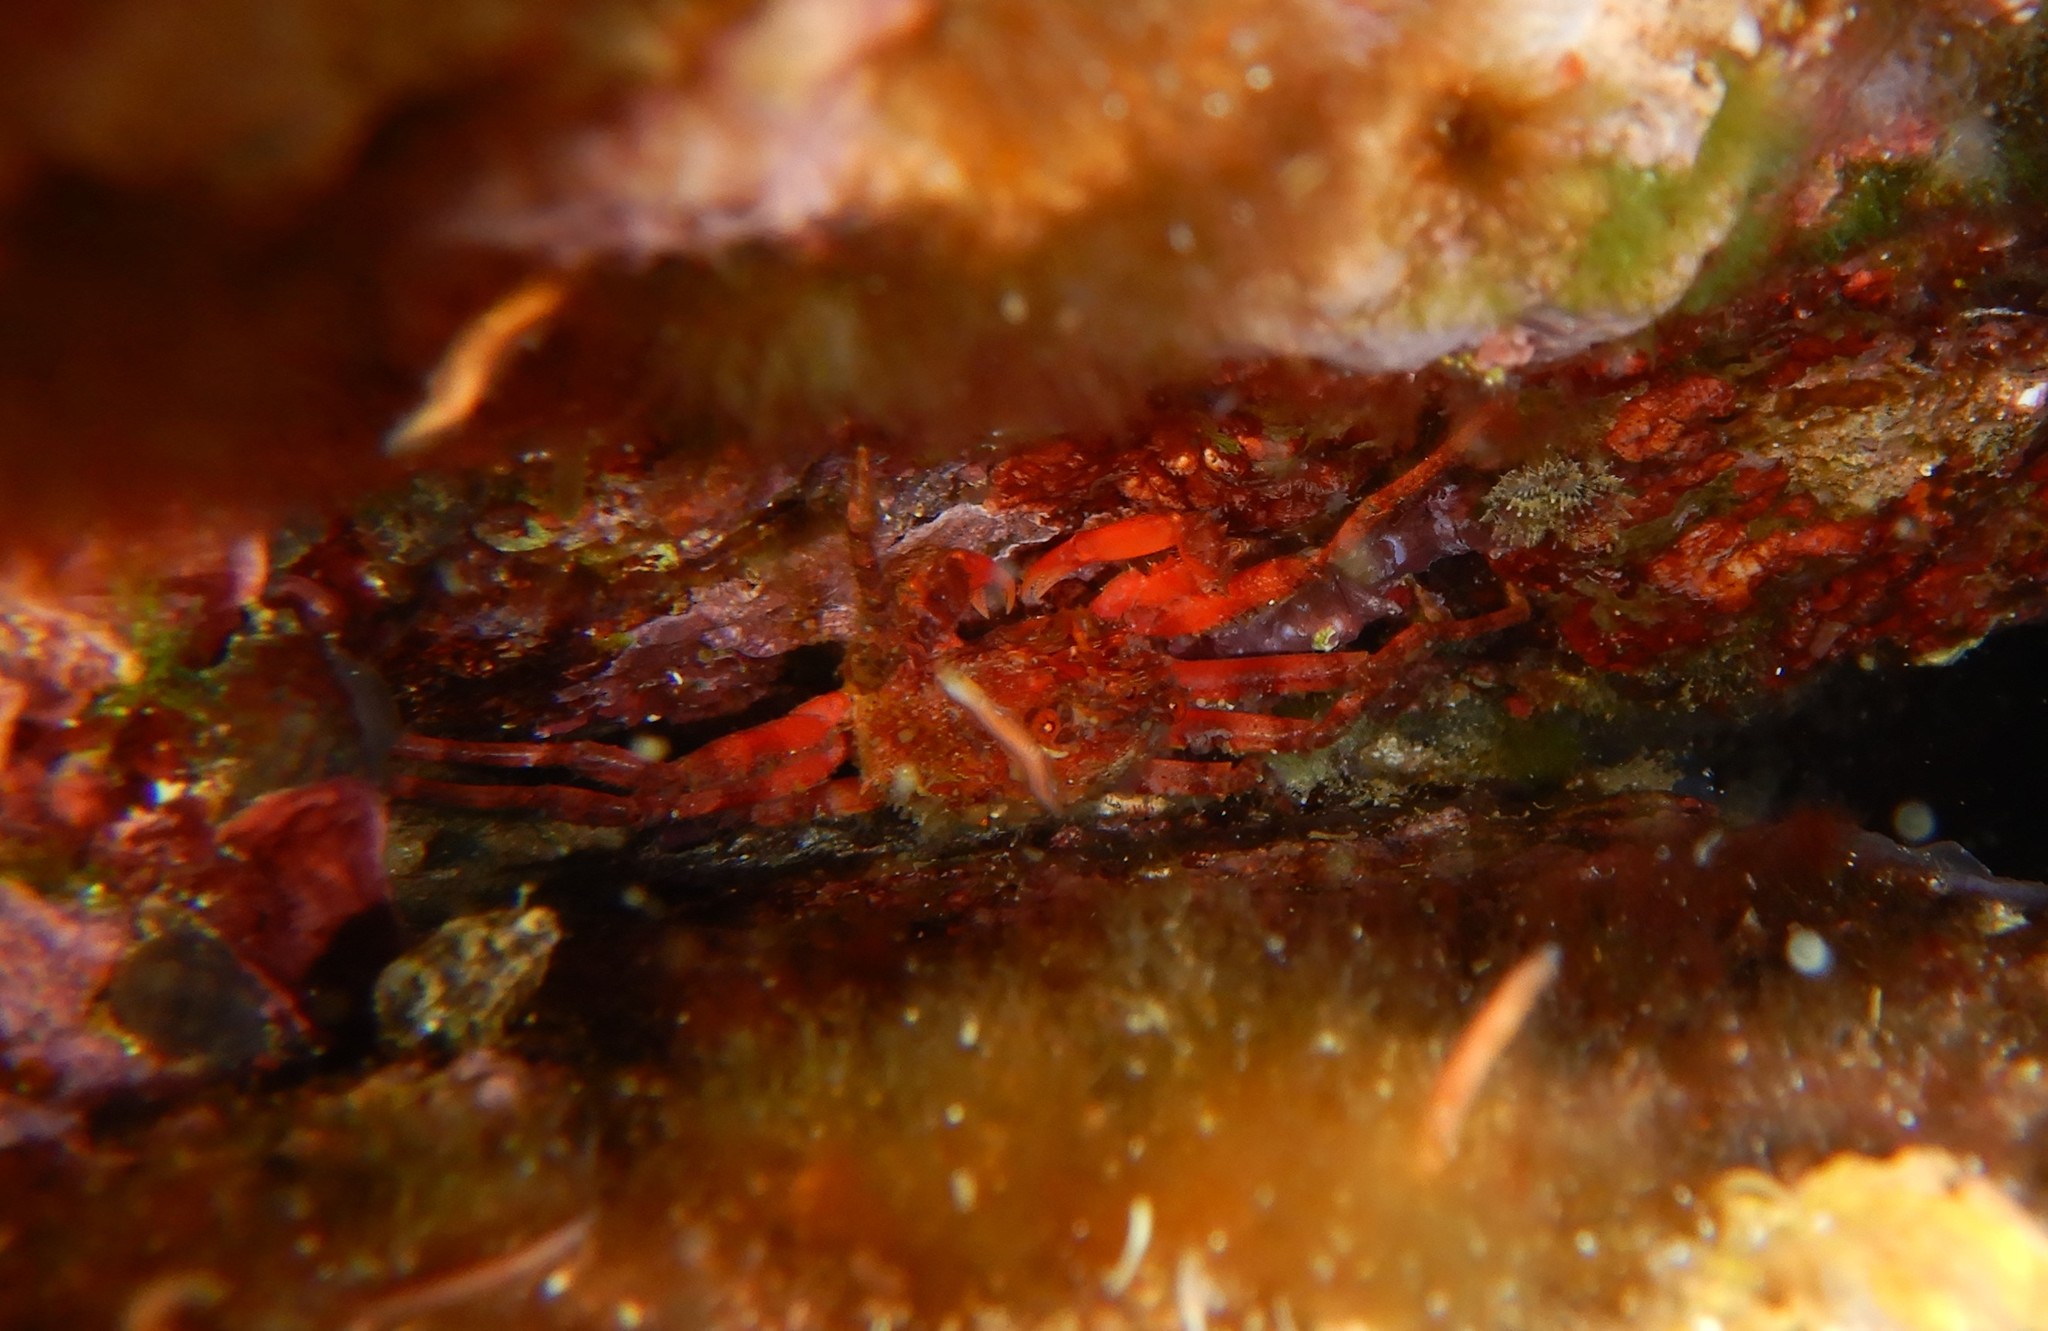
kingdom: Animalia
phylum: Arthropoda
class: Malacostraca
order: Decapoda
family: Epialtidae
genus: Herbstia
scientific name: Herbstia condyliata
